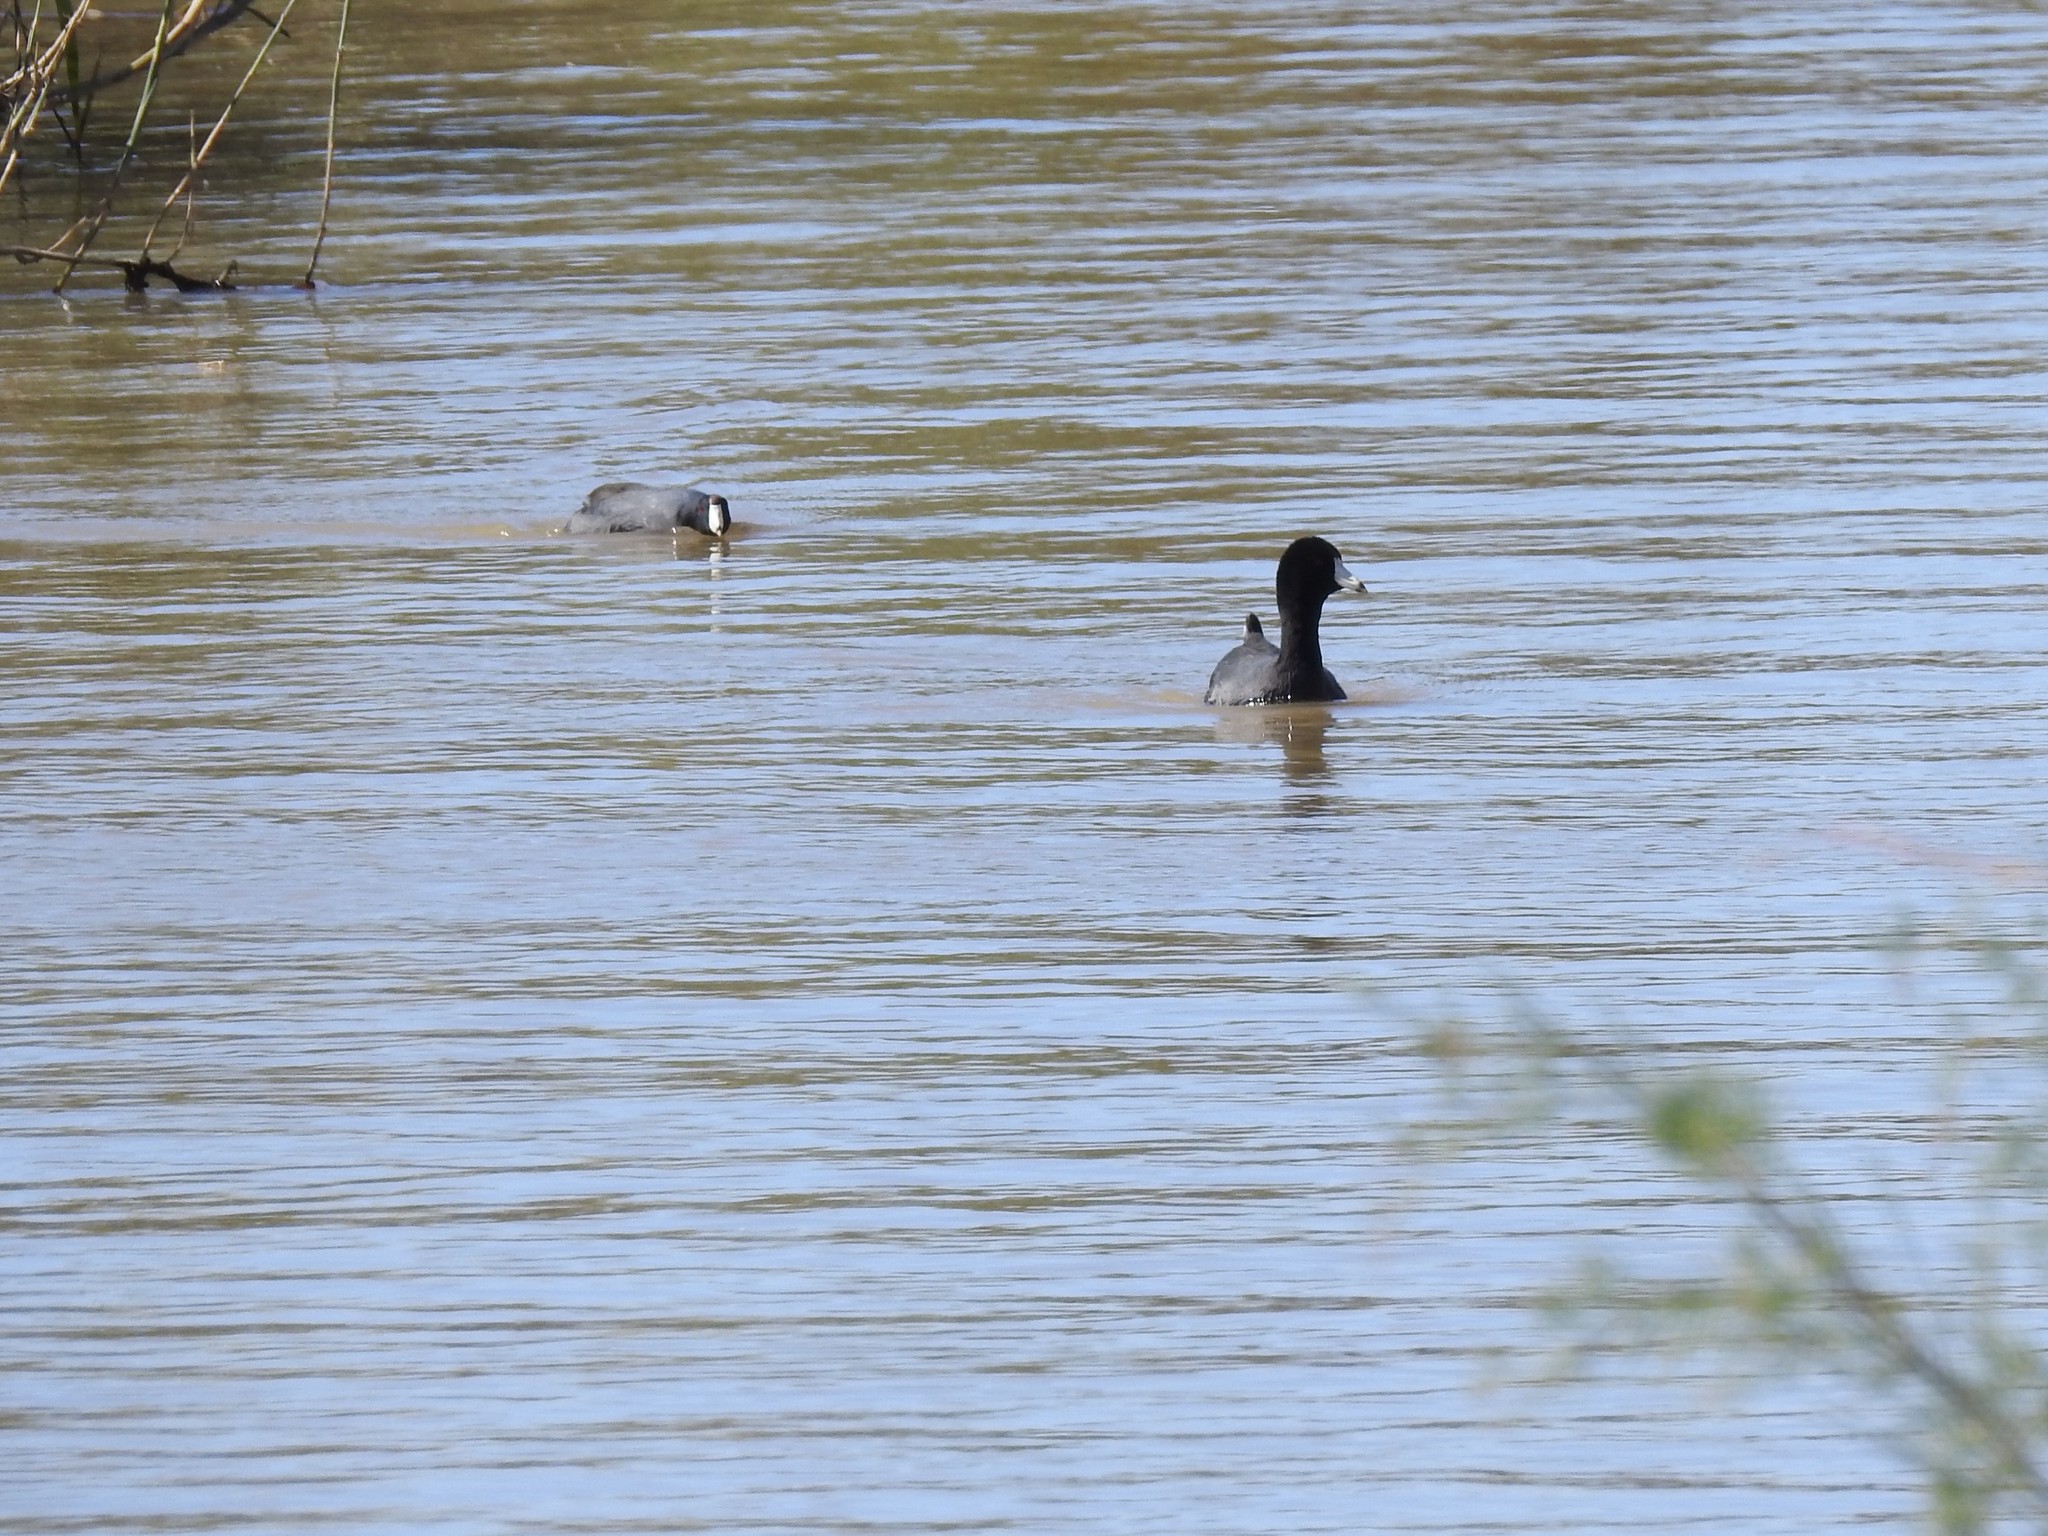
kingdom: Animalia
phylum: Chordata
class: Aves
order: Gruiformes
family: Rallidae
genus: Fulica
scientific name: Fulica americana
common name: American coot
